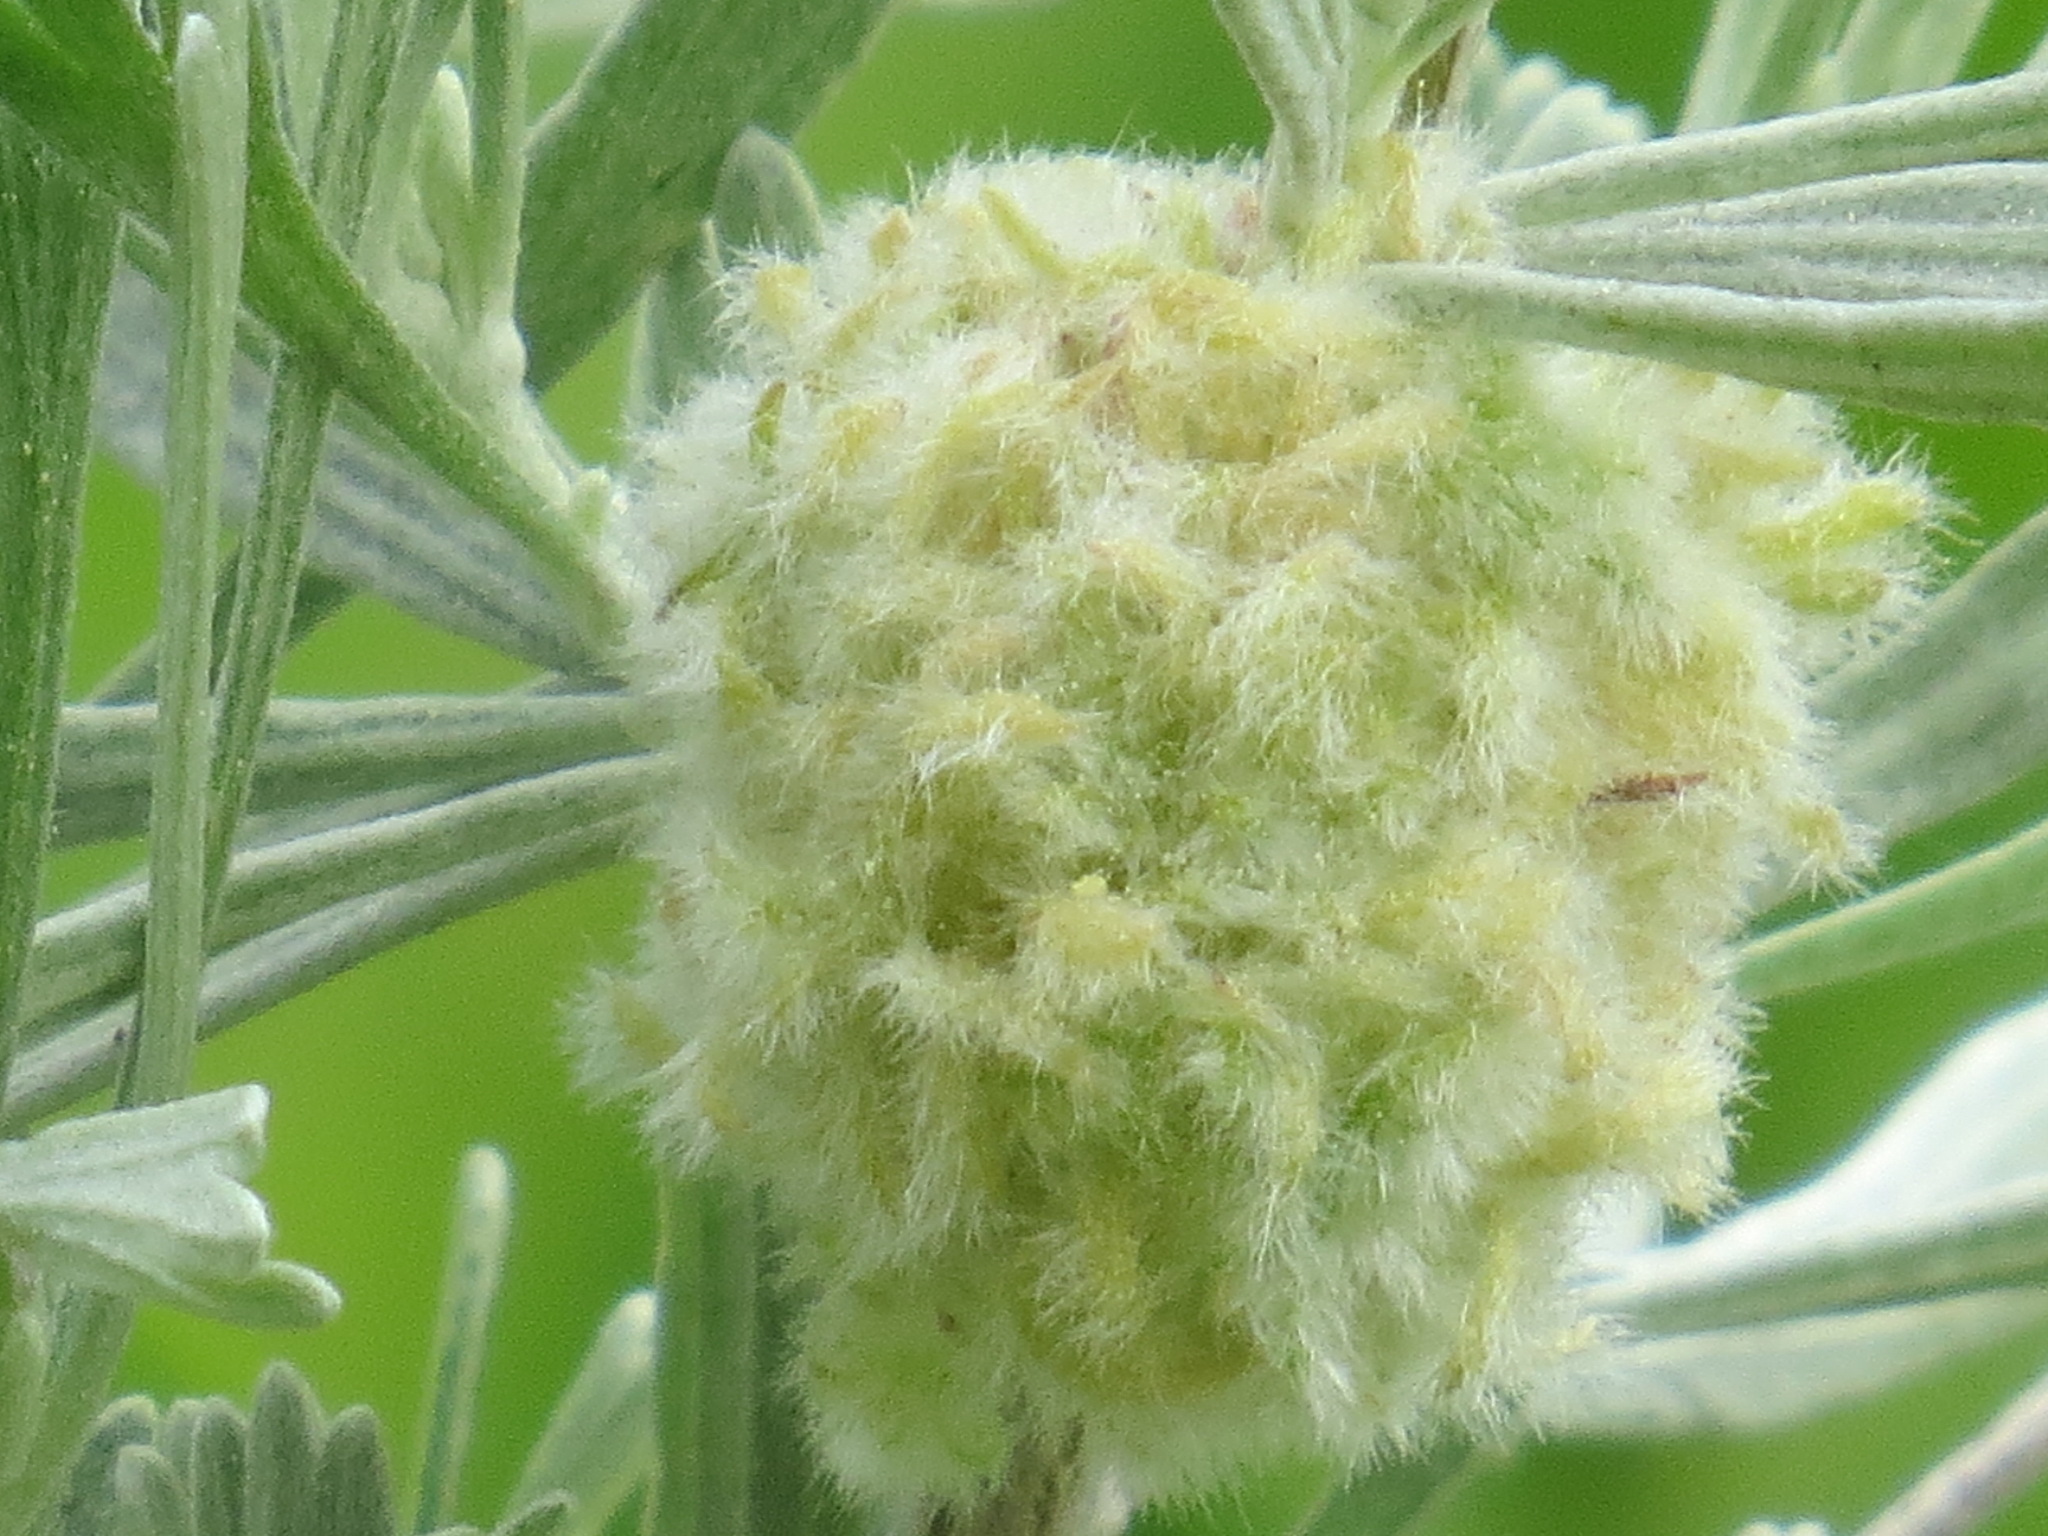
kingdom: Animalia
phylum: Arthropoda
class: Insecta
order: Diptera
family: Cecidomyiidae
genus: Rhopalomyia
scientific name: Rhopalomyia medusirrasa
